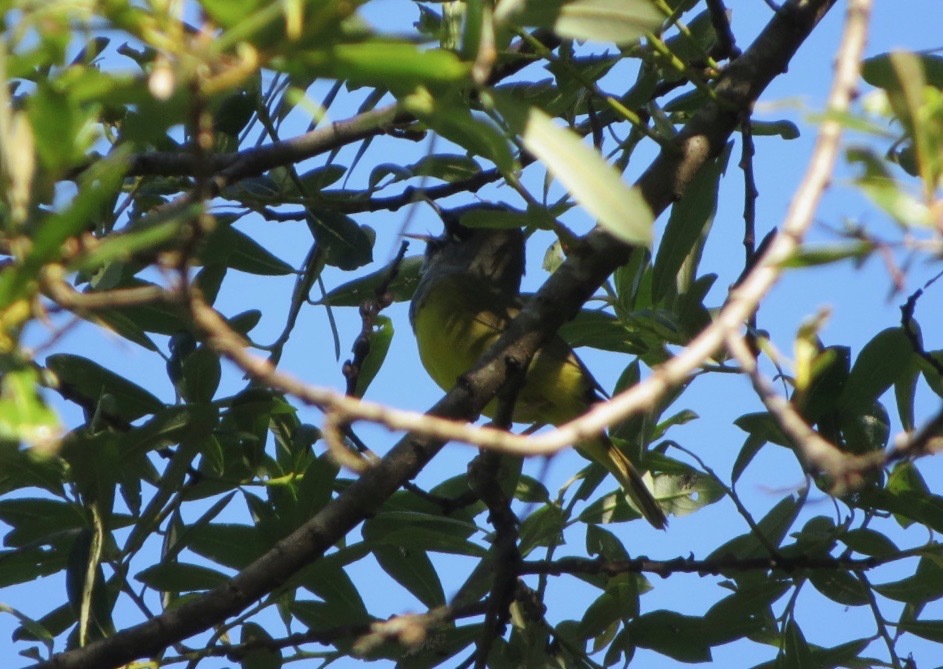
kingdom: Animalia
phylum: Chordata
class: Aves
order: Passeriformes
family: Parulidae
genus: Geothlypis
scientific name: Geothlypis tolmiei
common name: Macgillivray's warbler
